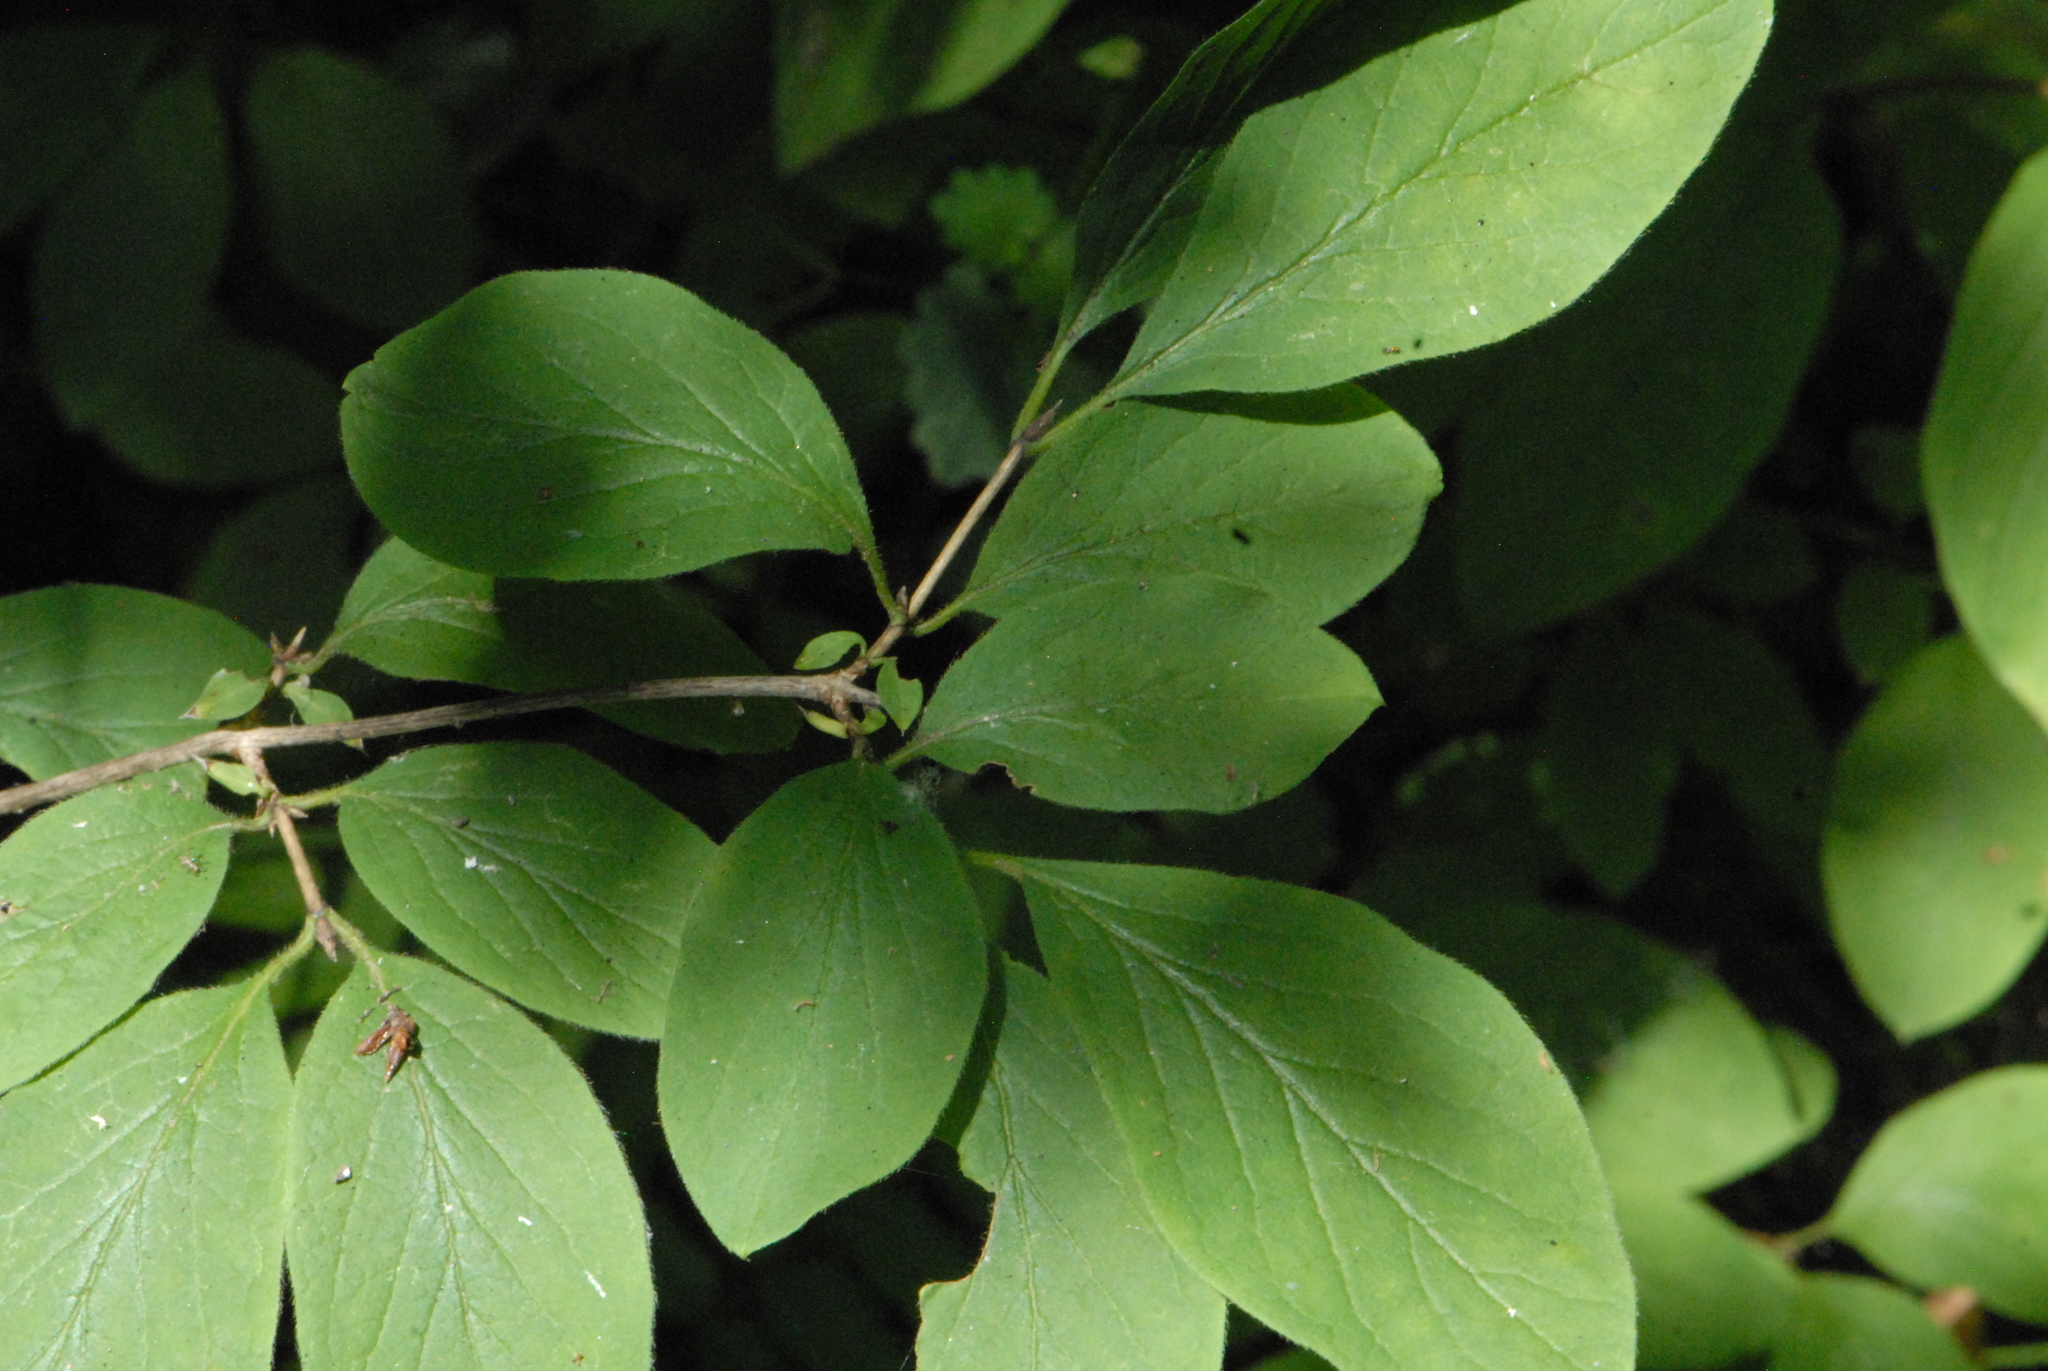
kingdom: Plantae
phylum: Tracheophyta
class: Magnoliopsida
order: Dipsacales
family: Caprifoliaceae
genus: Lonicera
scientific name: Lonicera xylosteum
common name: Fly honeysuckle
